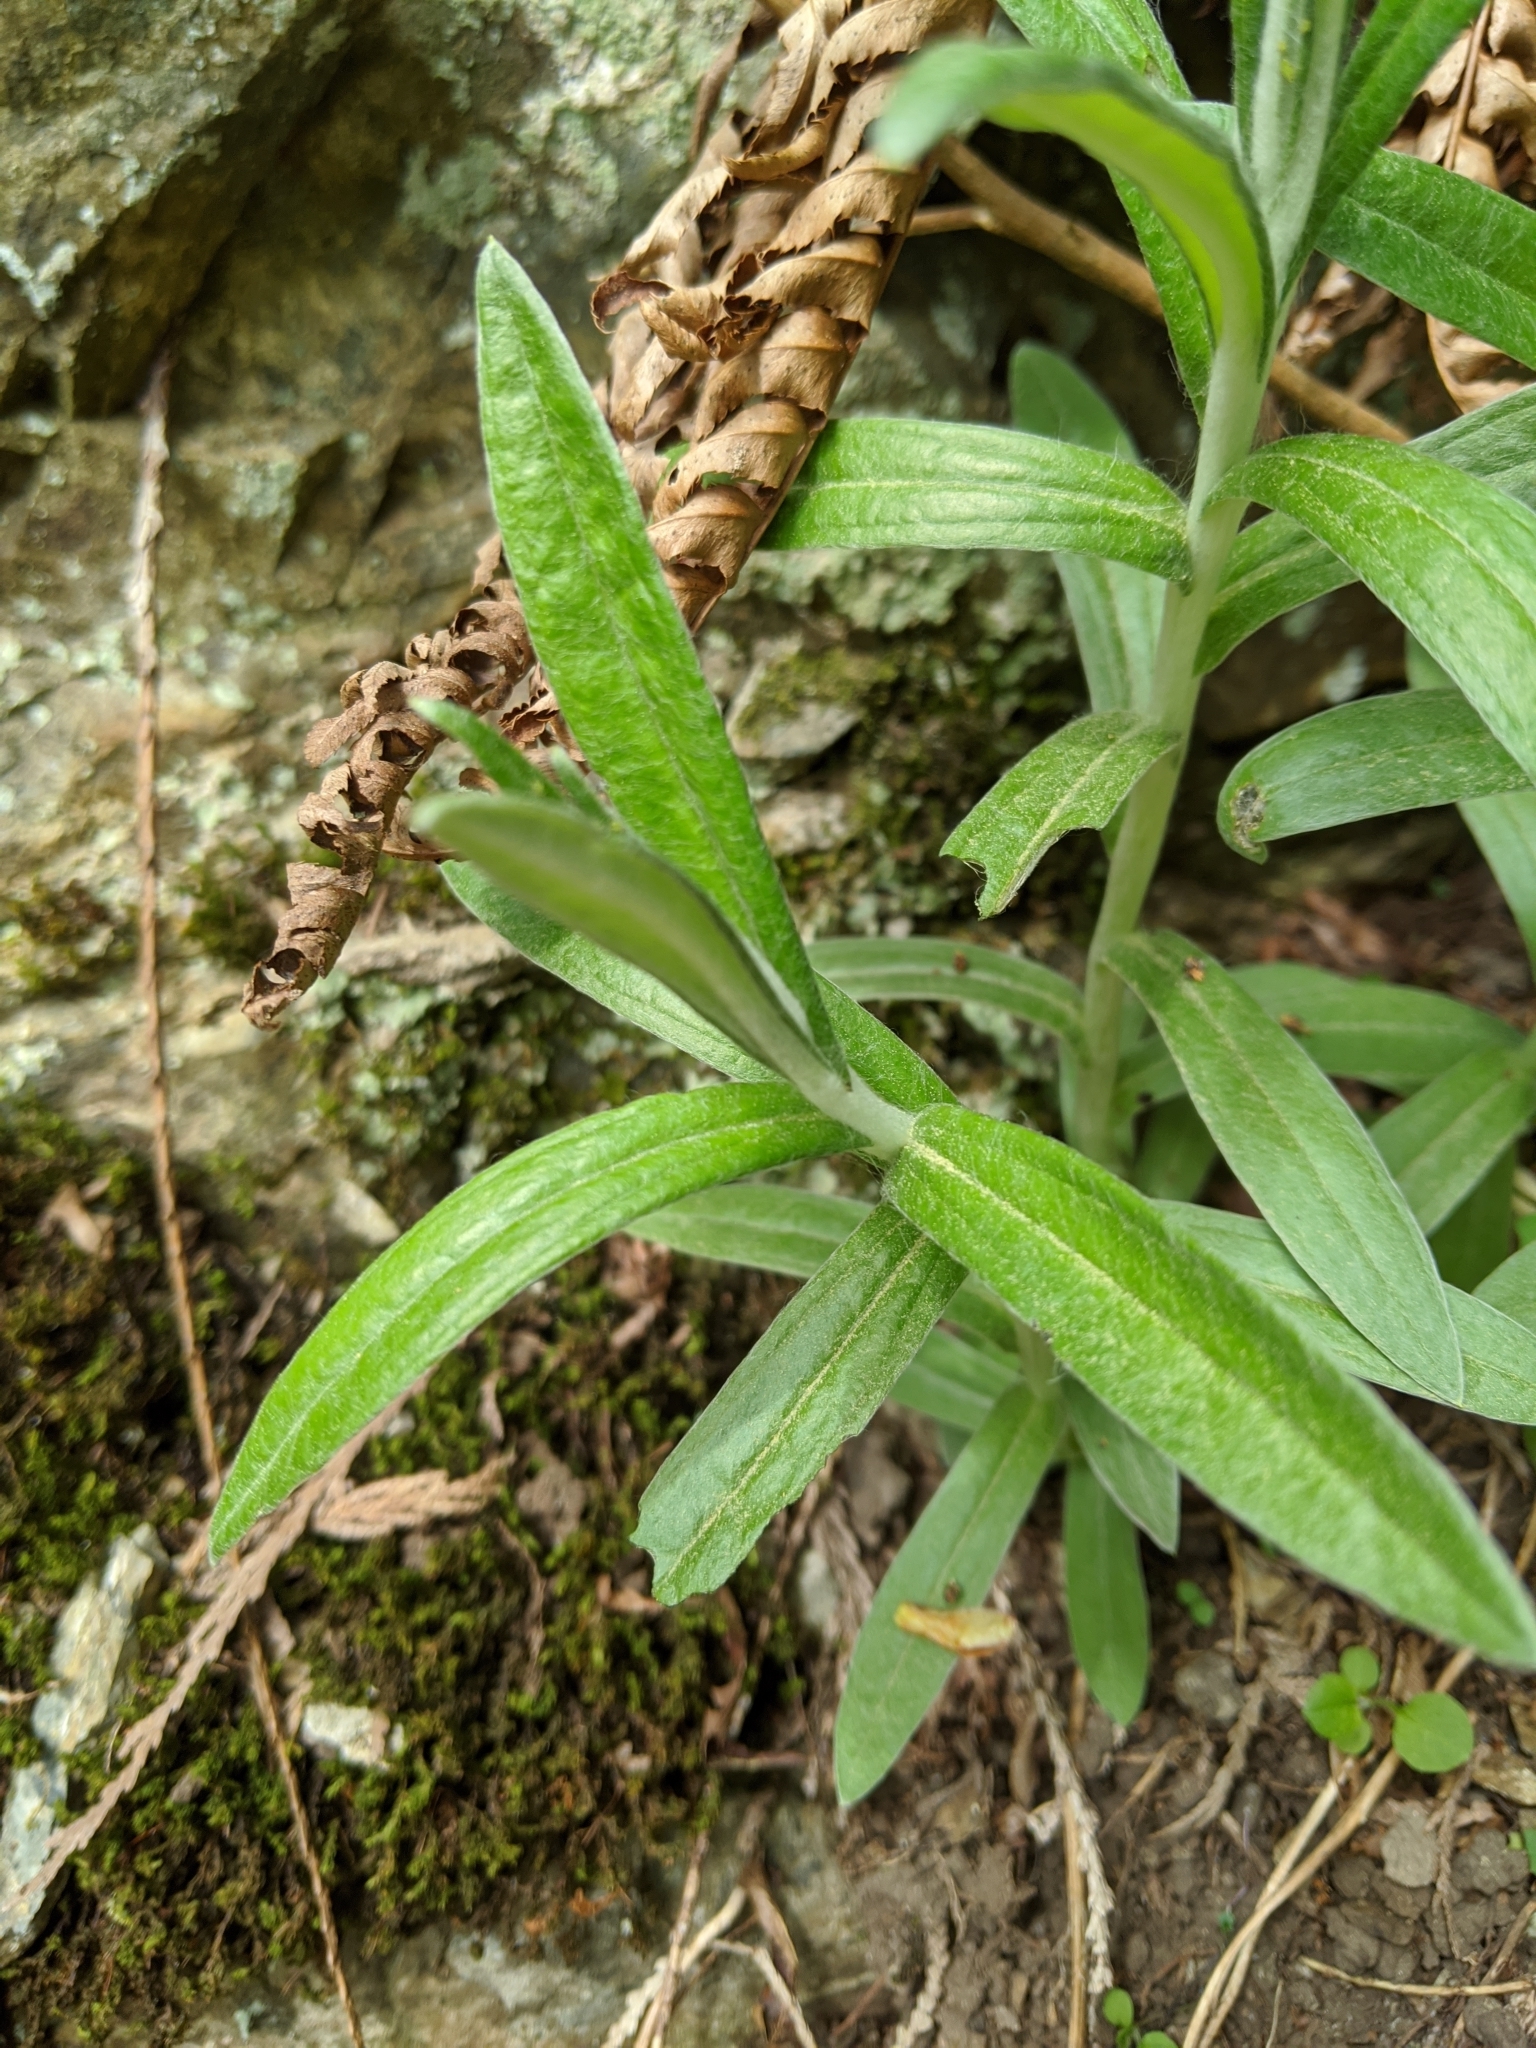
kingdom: Plantae
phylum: Tracheophyta
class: Magnoliopsida
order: Asterales
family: Asteraceae
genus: Anaphalis
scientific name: Anaphalis margaritacea
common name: Pearly everlasting
